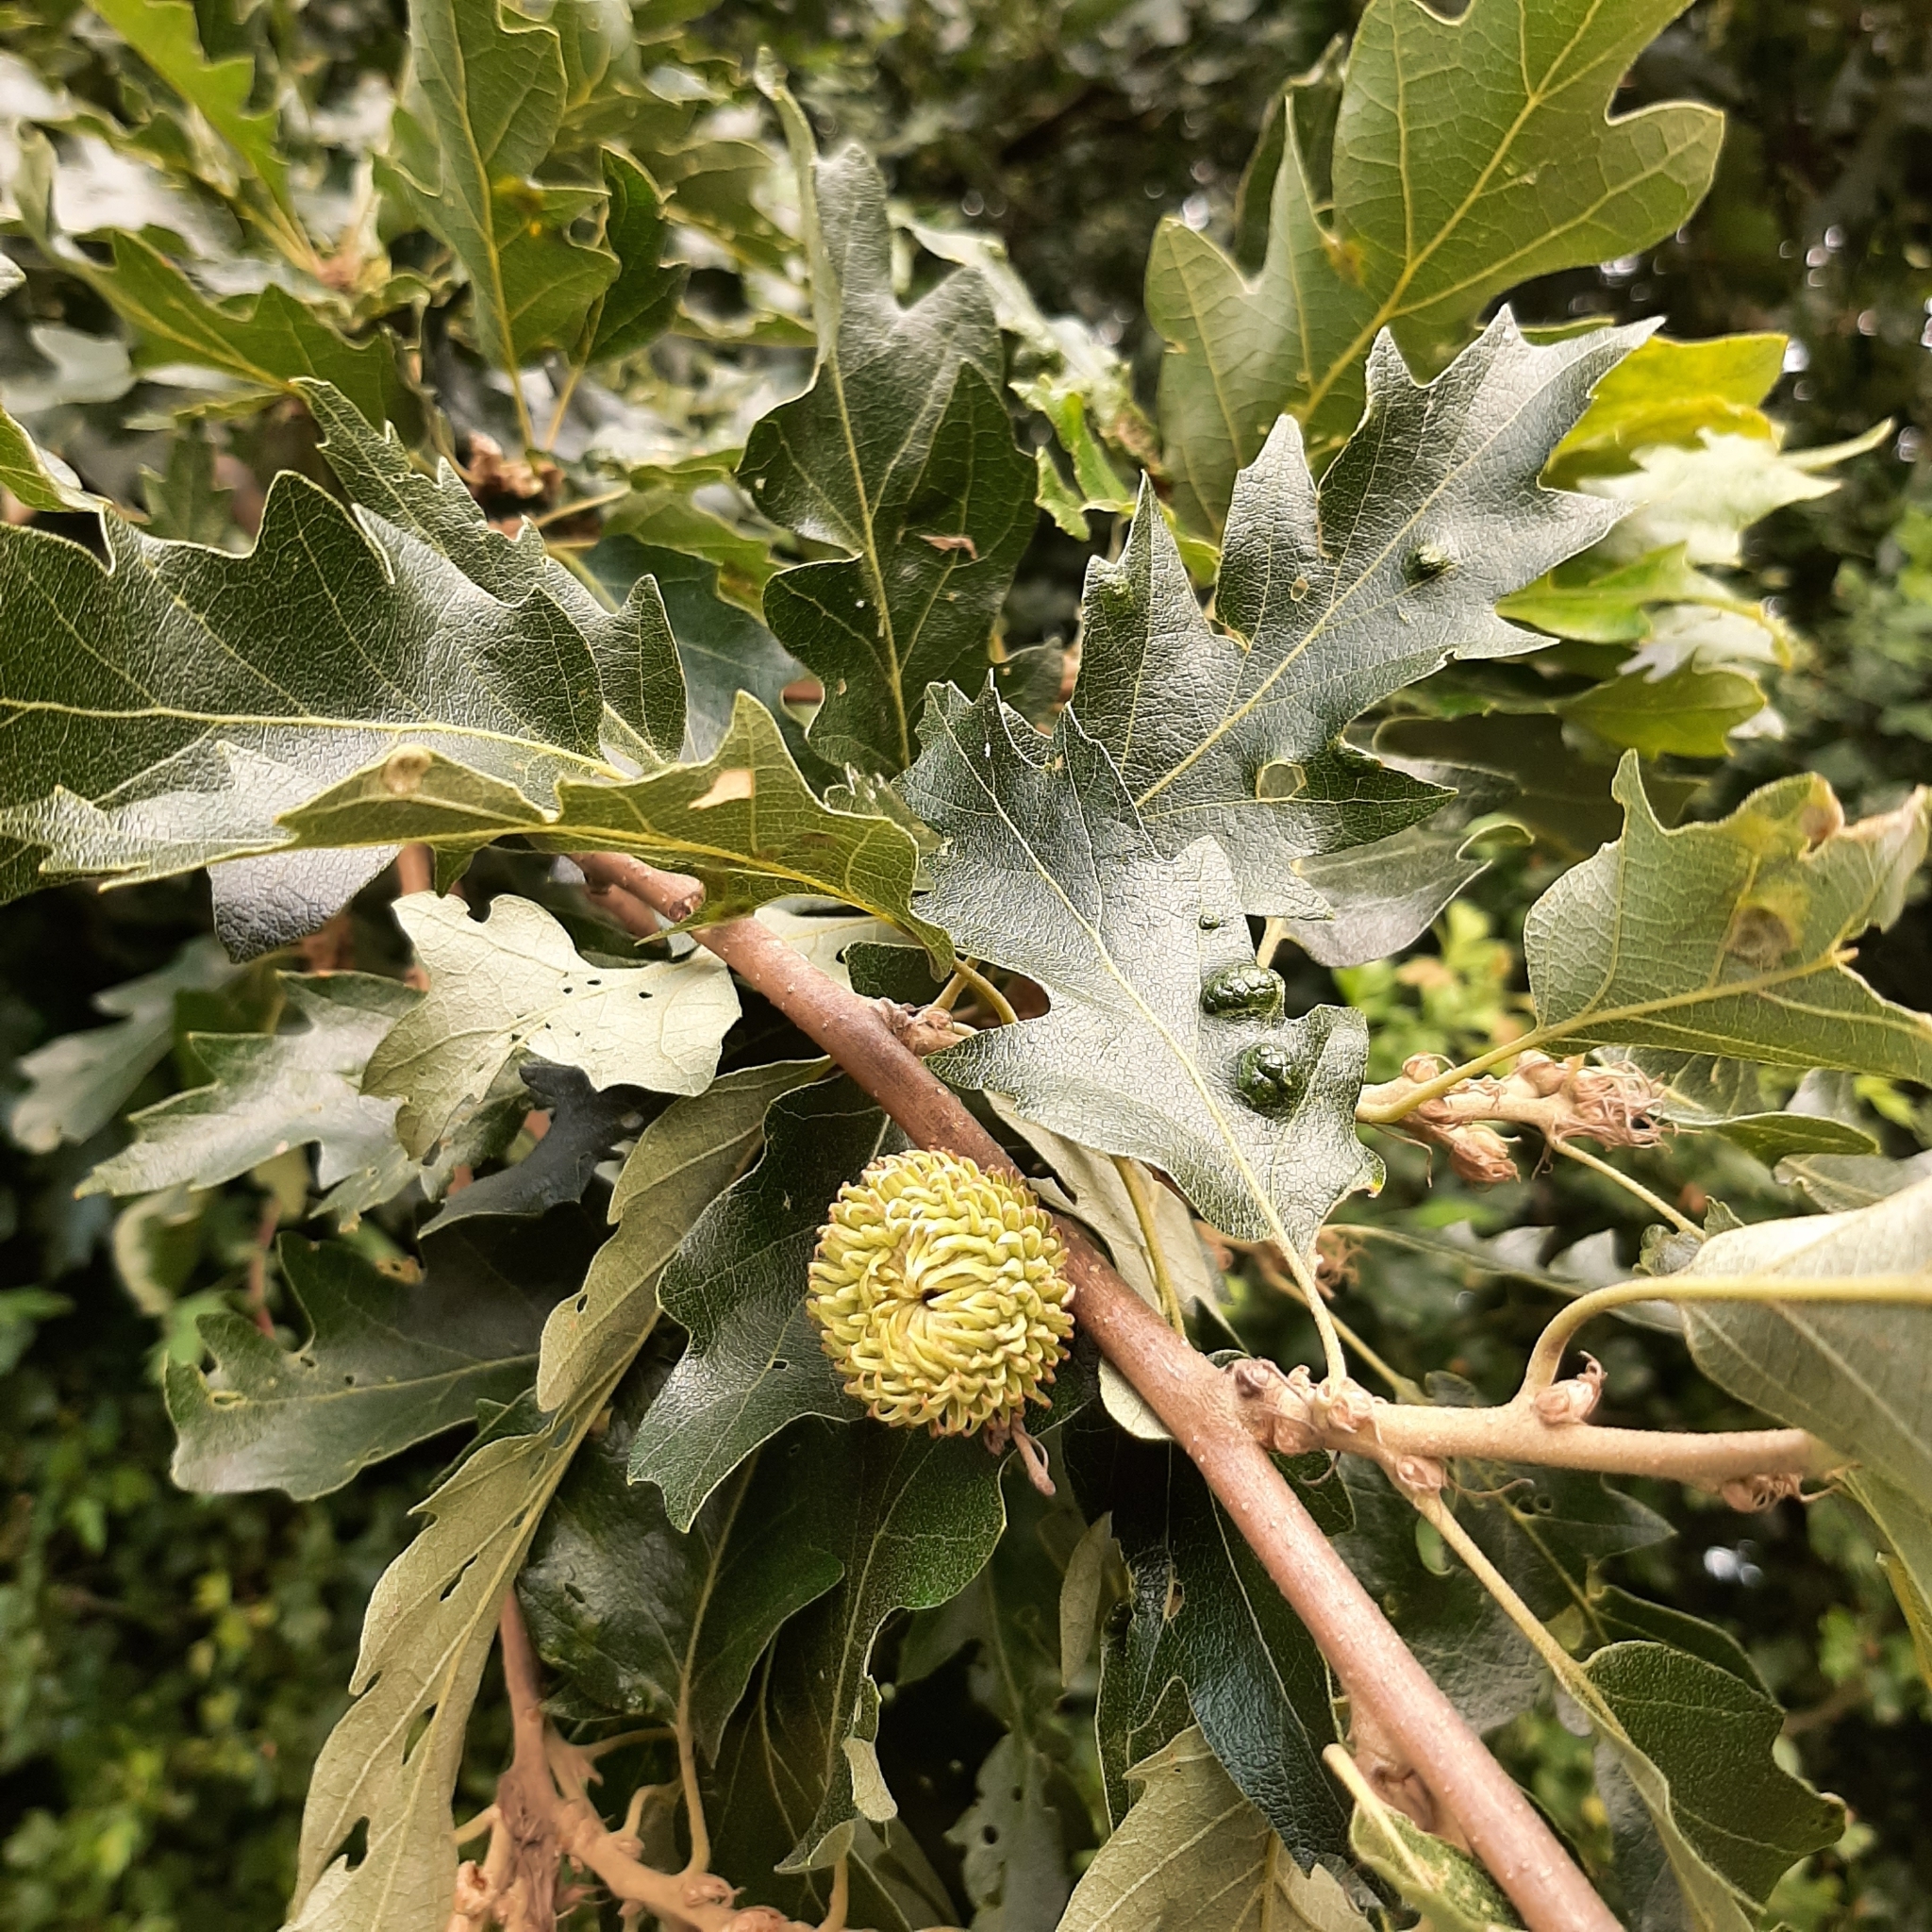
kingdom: Plantae
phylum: Tracheophyta
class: Magnoliopsida
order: Fagales
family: Fagaceae
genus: Quercus
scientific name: Quercus cerris
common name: Turkey oak
